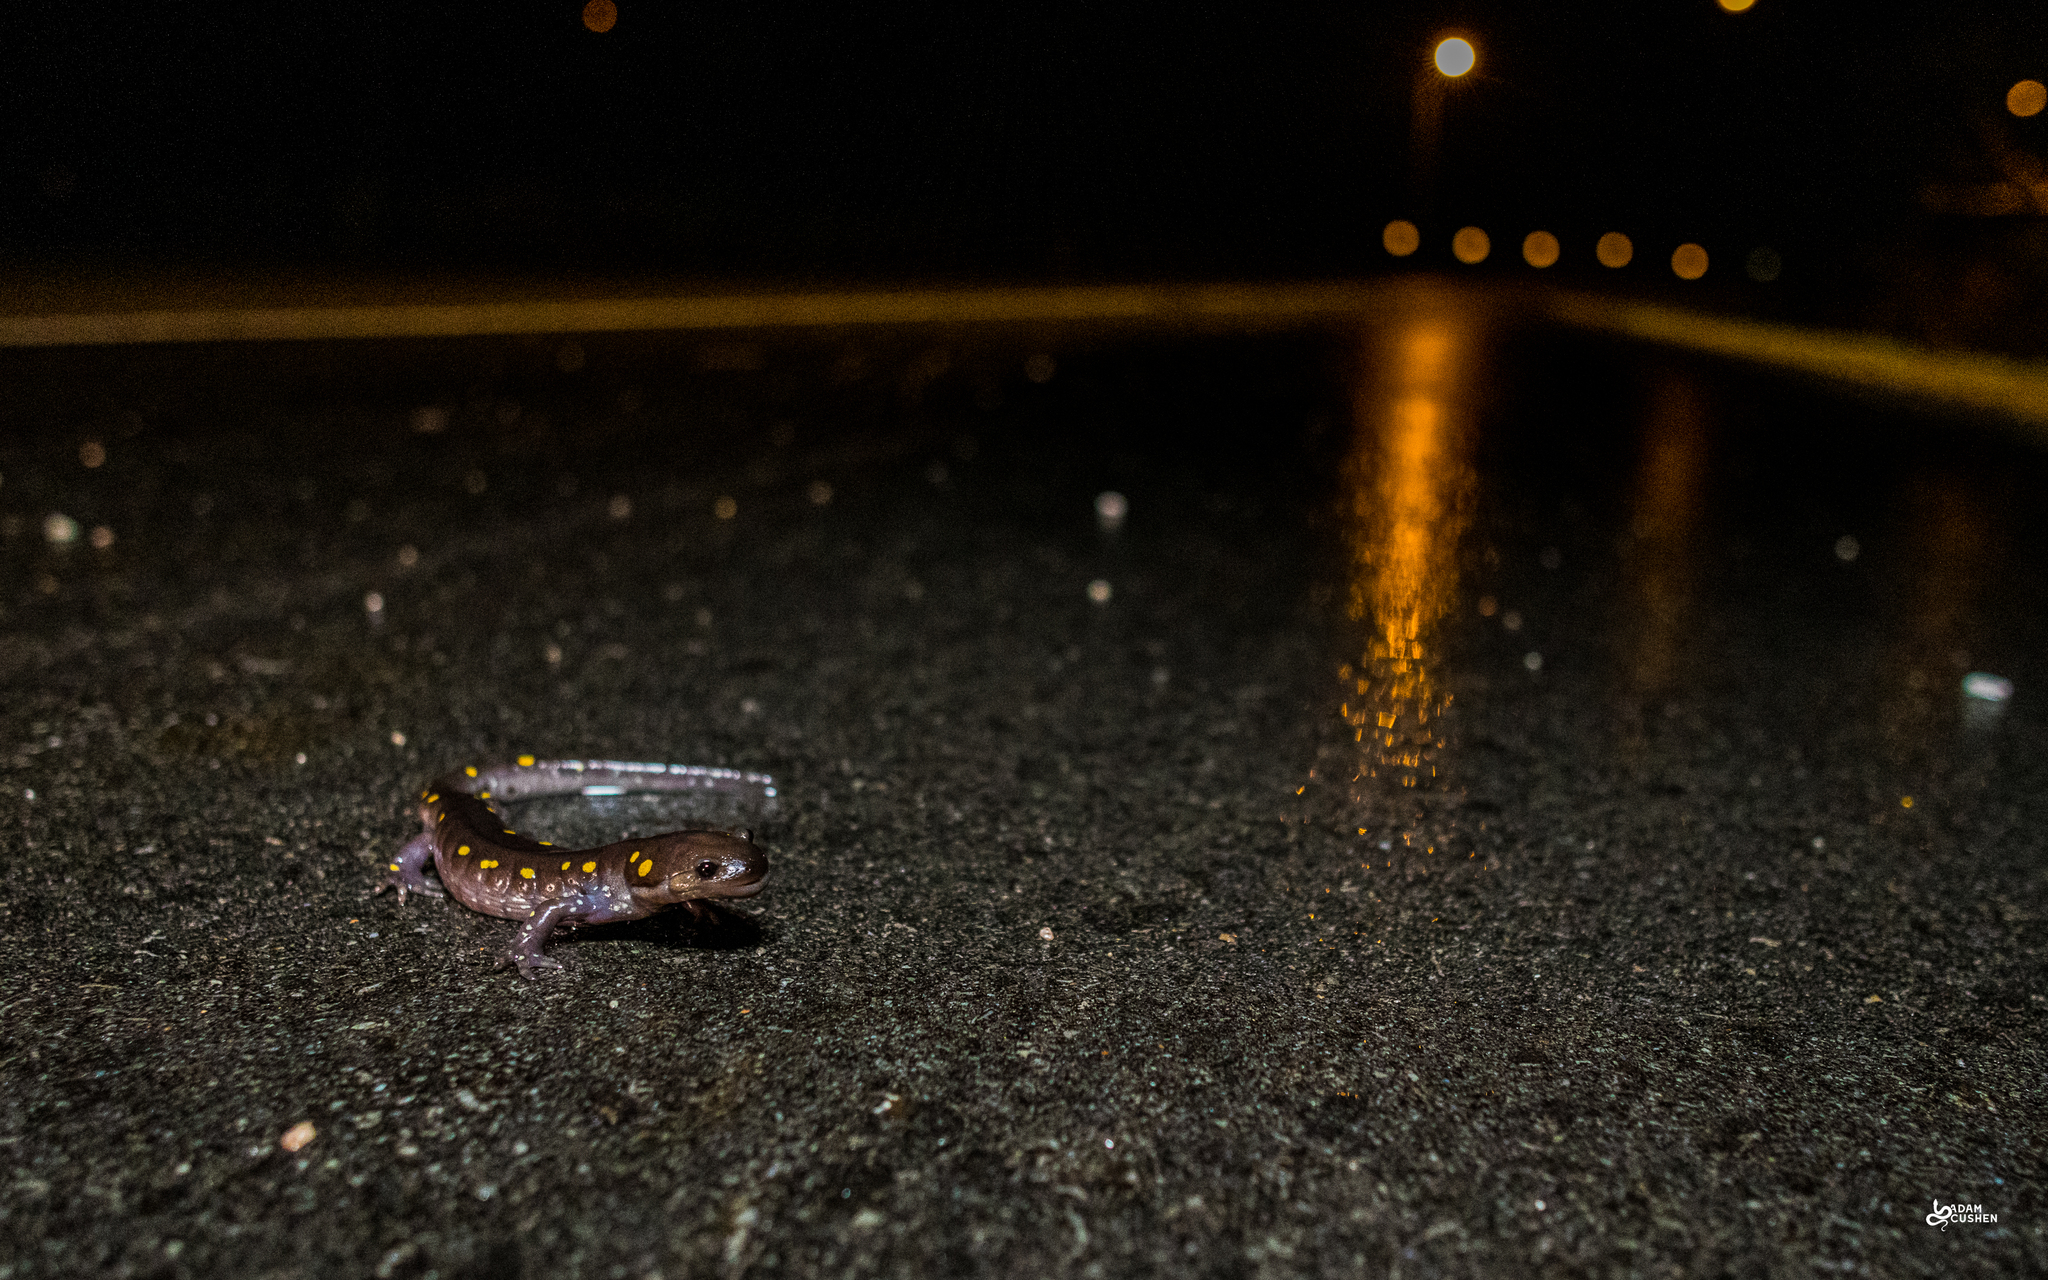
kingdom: Animalia
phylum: Chordata
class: Amphibia
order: Caudata
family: Ambystomatidae
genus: Ambystoma
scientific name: Ambystoma maculatum
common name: Spotted salamander
